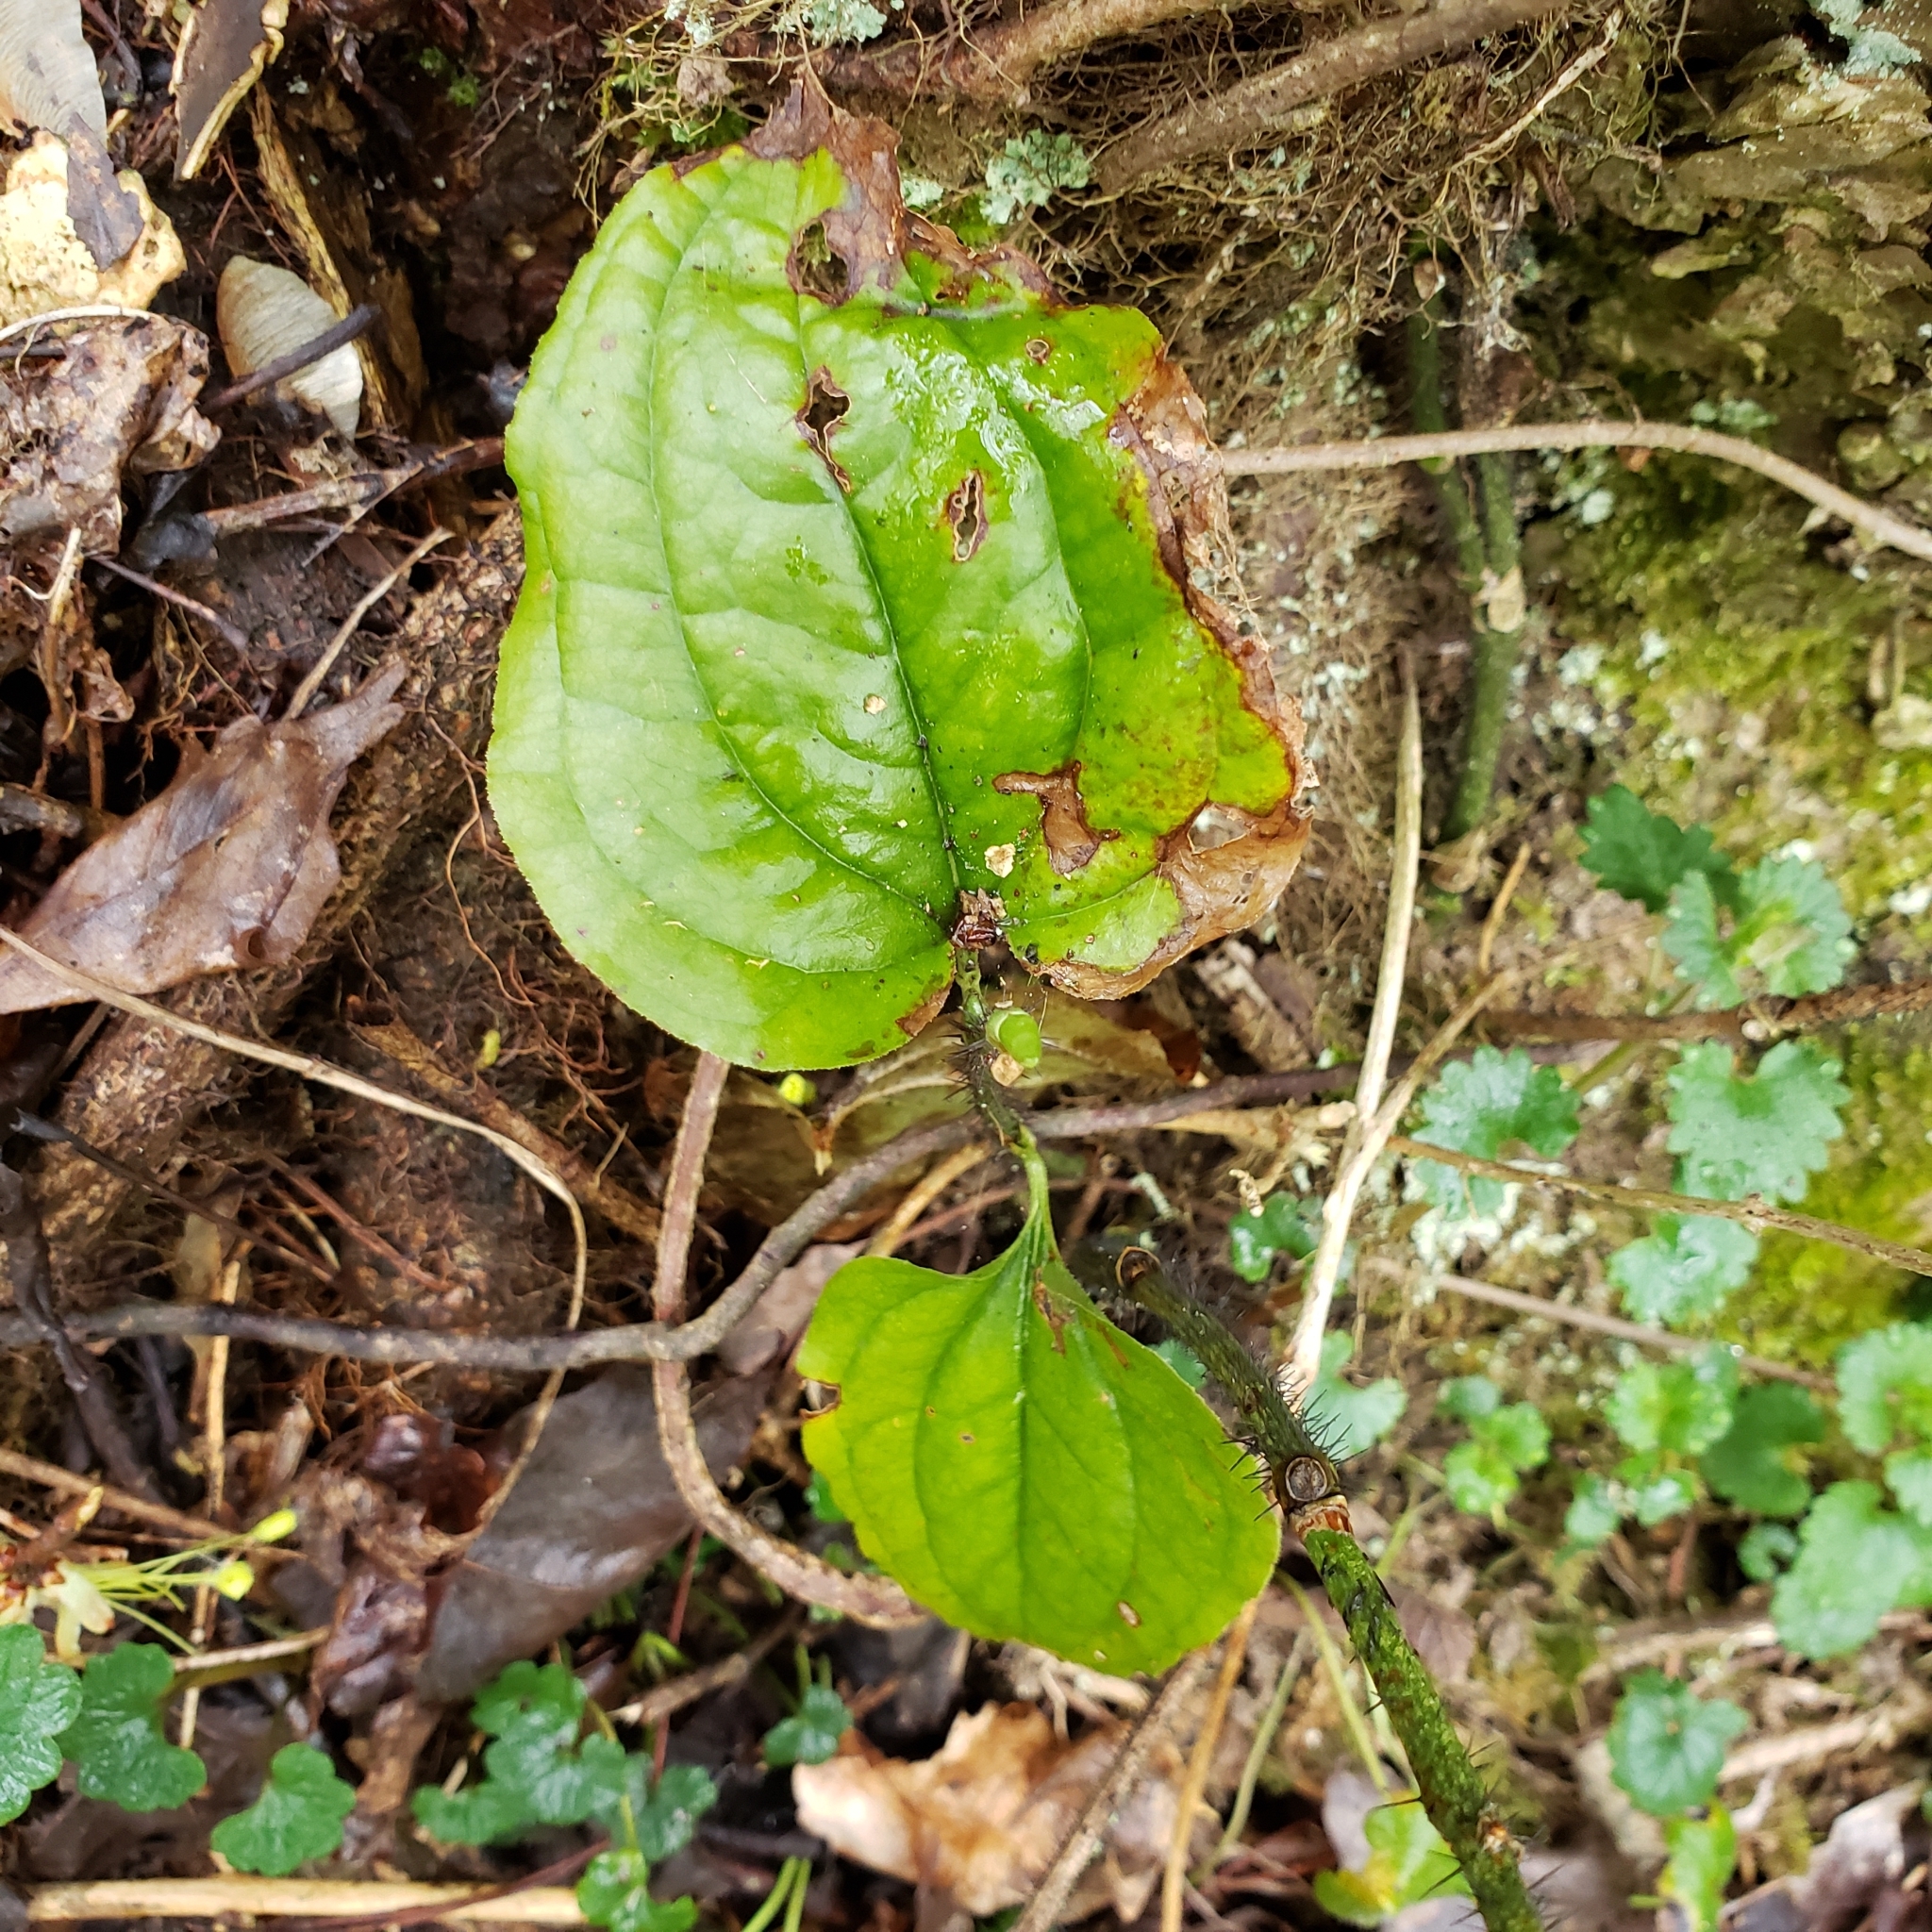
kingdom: Plantae
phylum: Tracheophyta
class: Liliopsida
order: Liliales
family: Smilacaceae
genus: Smilax
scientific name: Smilax tamnoides
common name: Hellfetter
